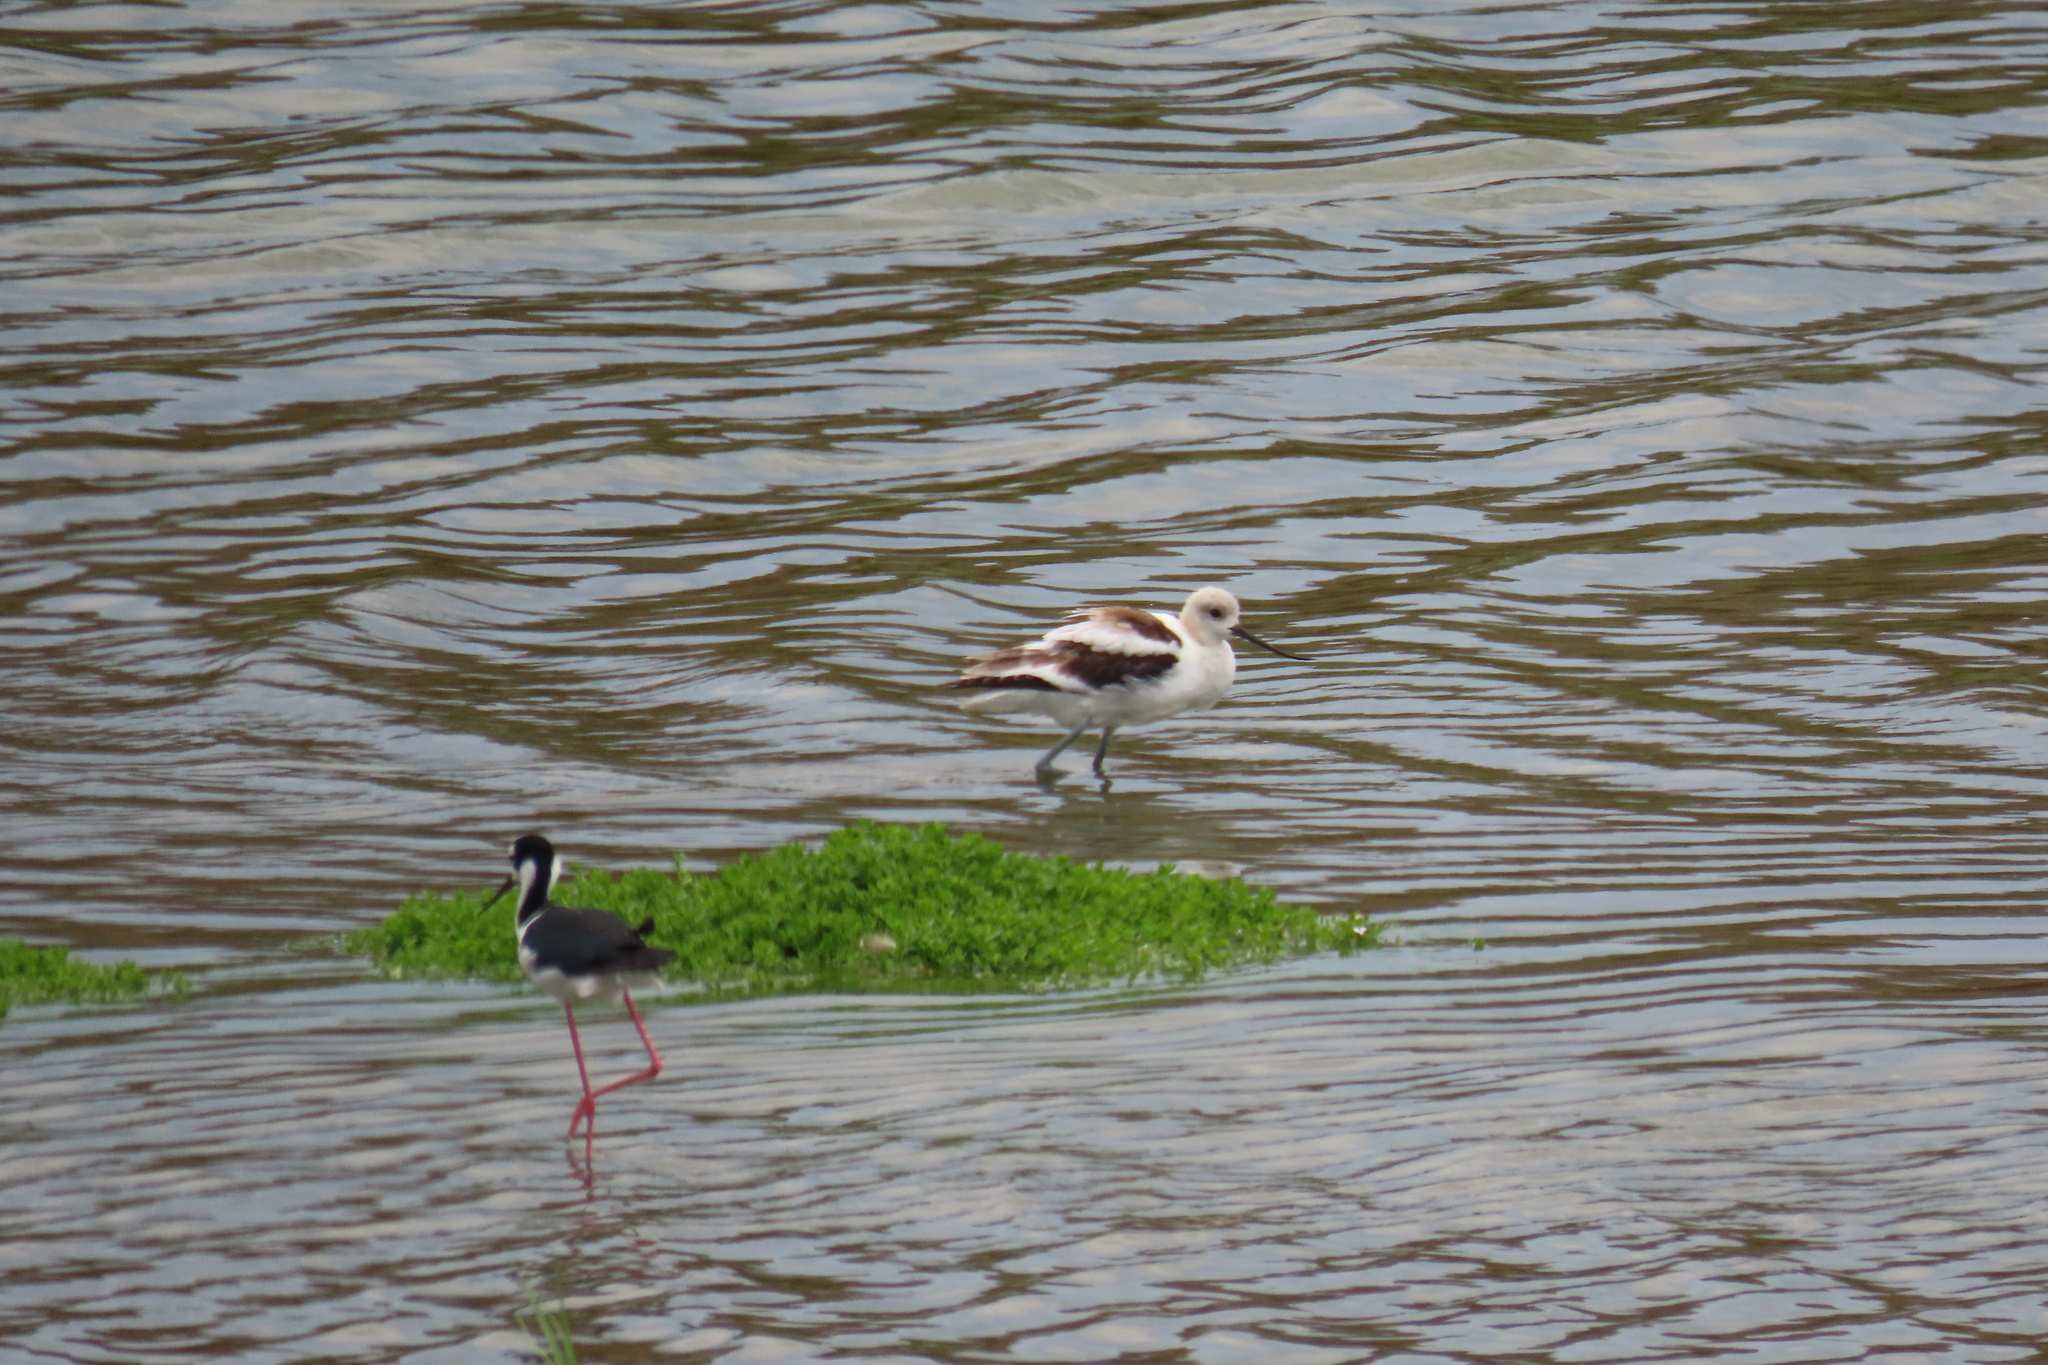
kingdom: Animalia
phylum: Chordata
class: Aves
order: Charadriiformes
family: Recurvirostridae
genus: Recurvirostra
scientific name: Recurvirostra americana
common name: American avocet
